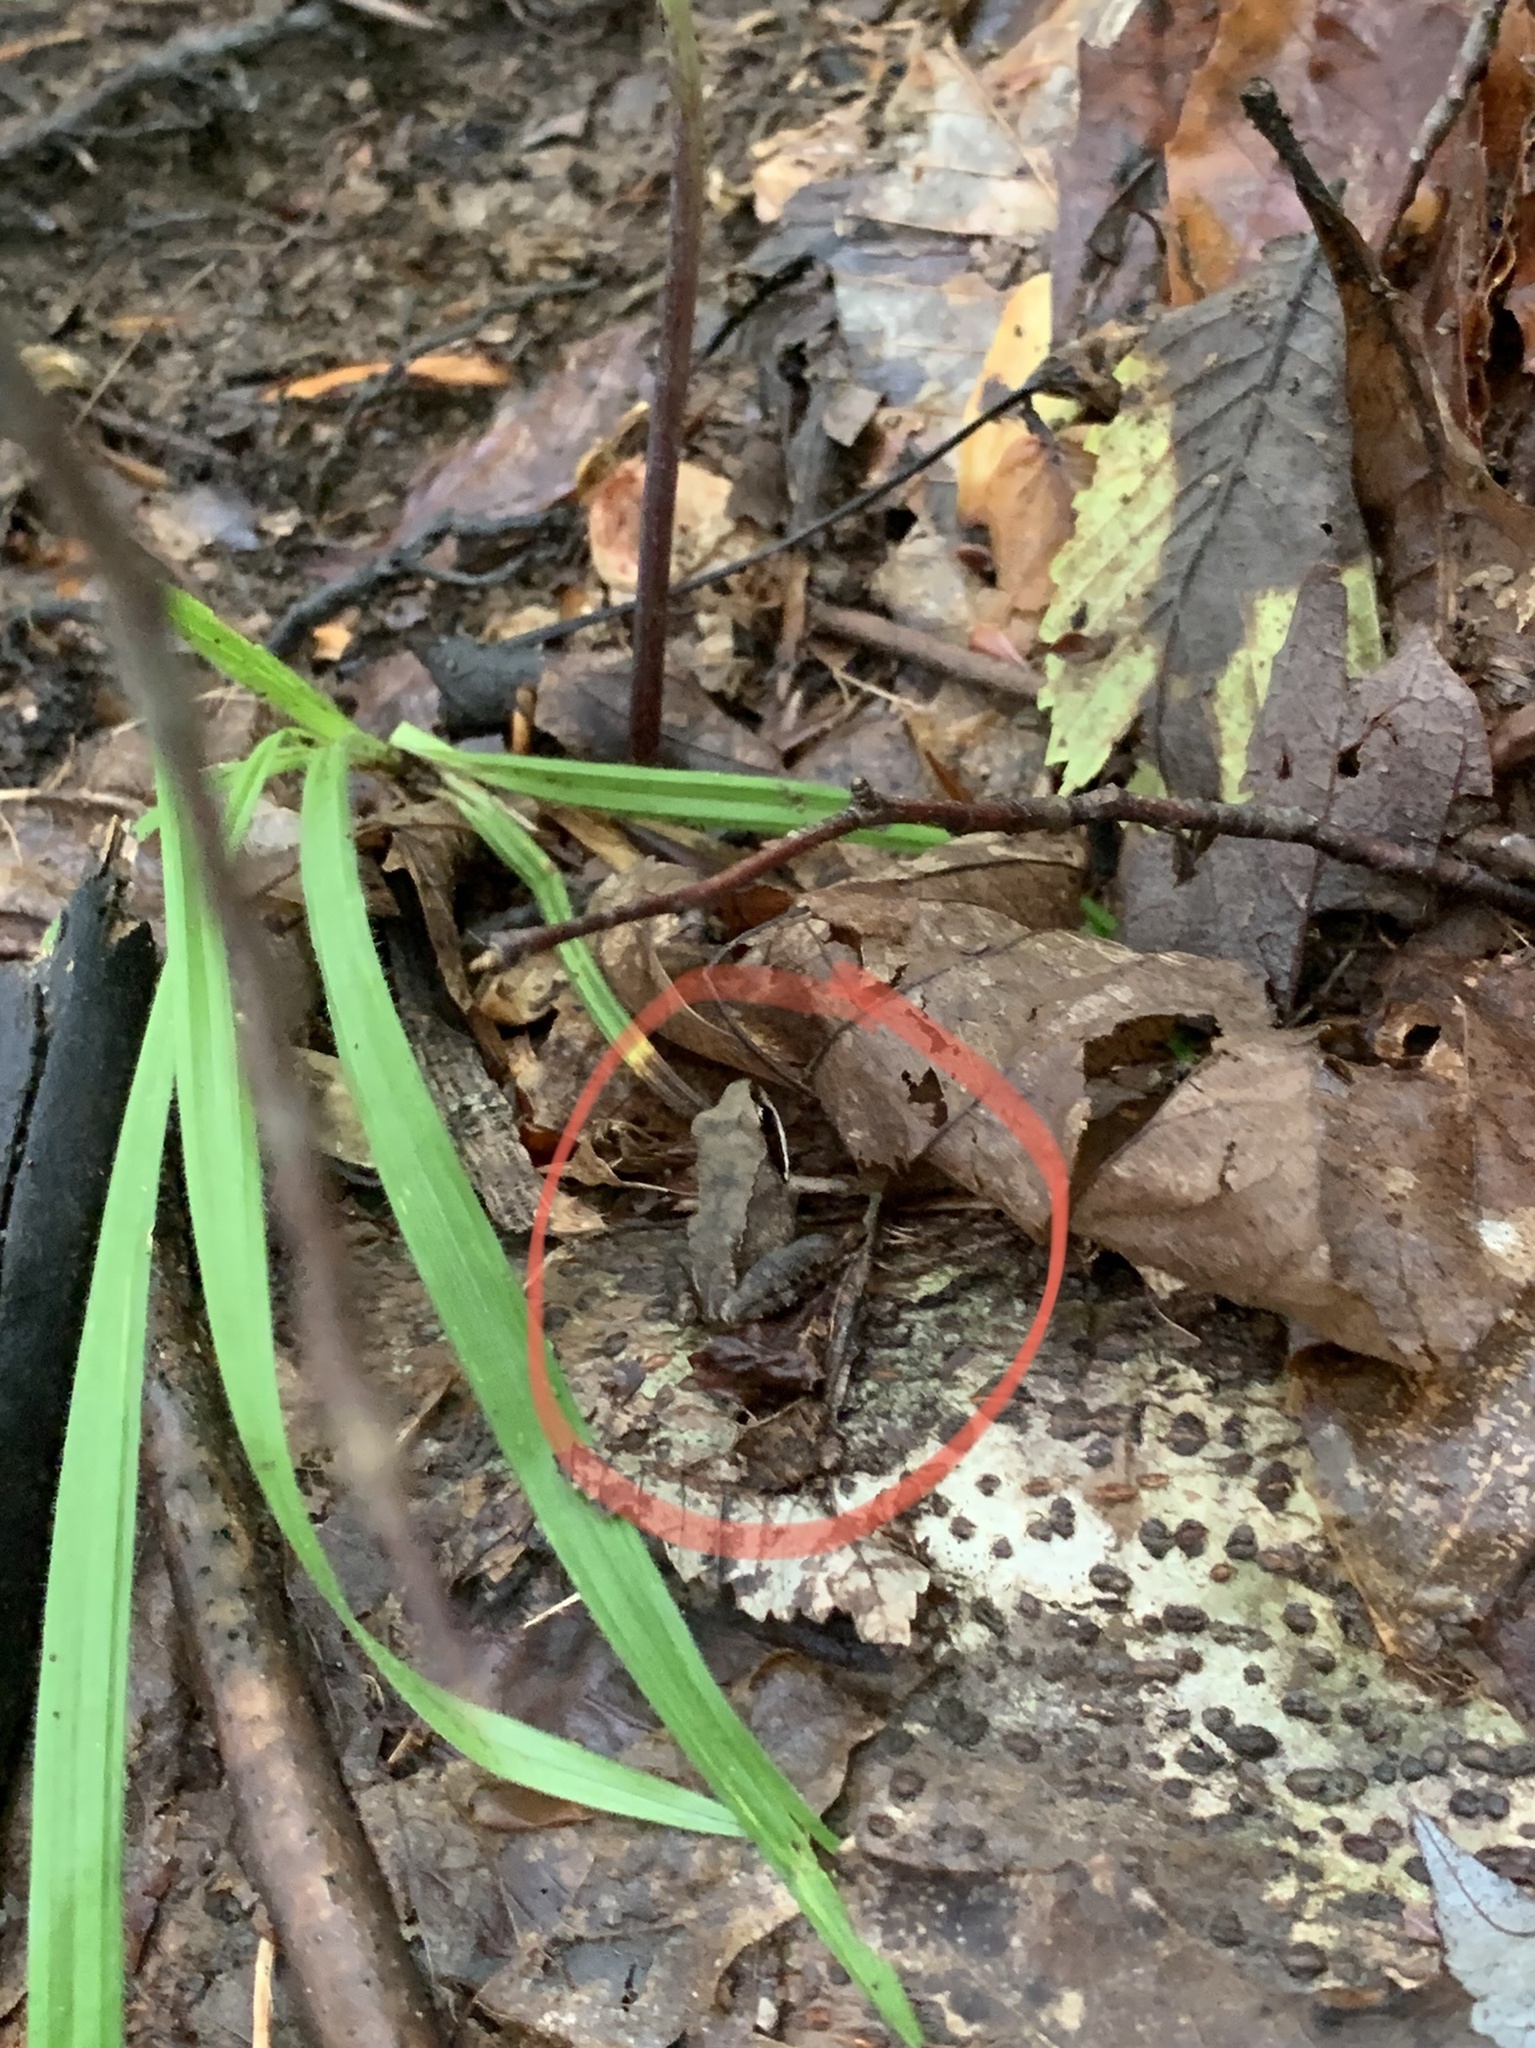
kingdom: Animalia
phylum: Chordata
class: Amphibia
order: Anura
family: Ranidae
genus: Lithobates
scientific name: Lithobates sylvaticus
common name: Wood frog
